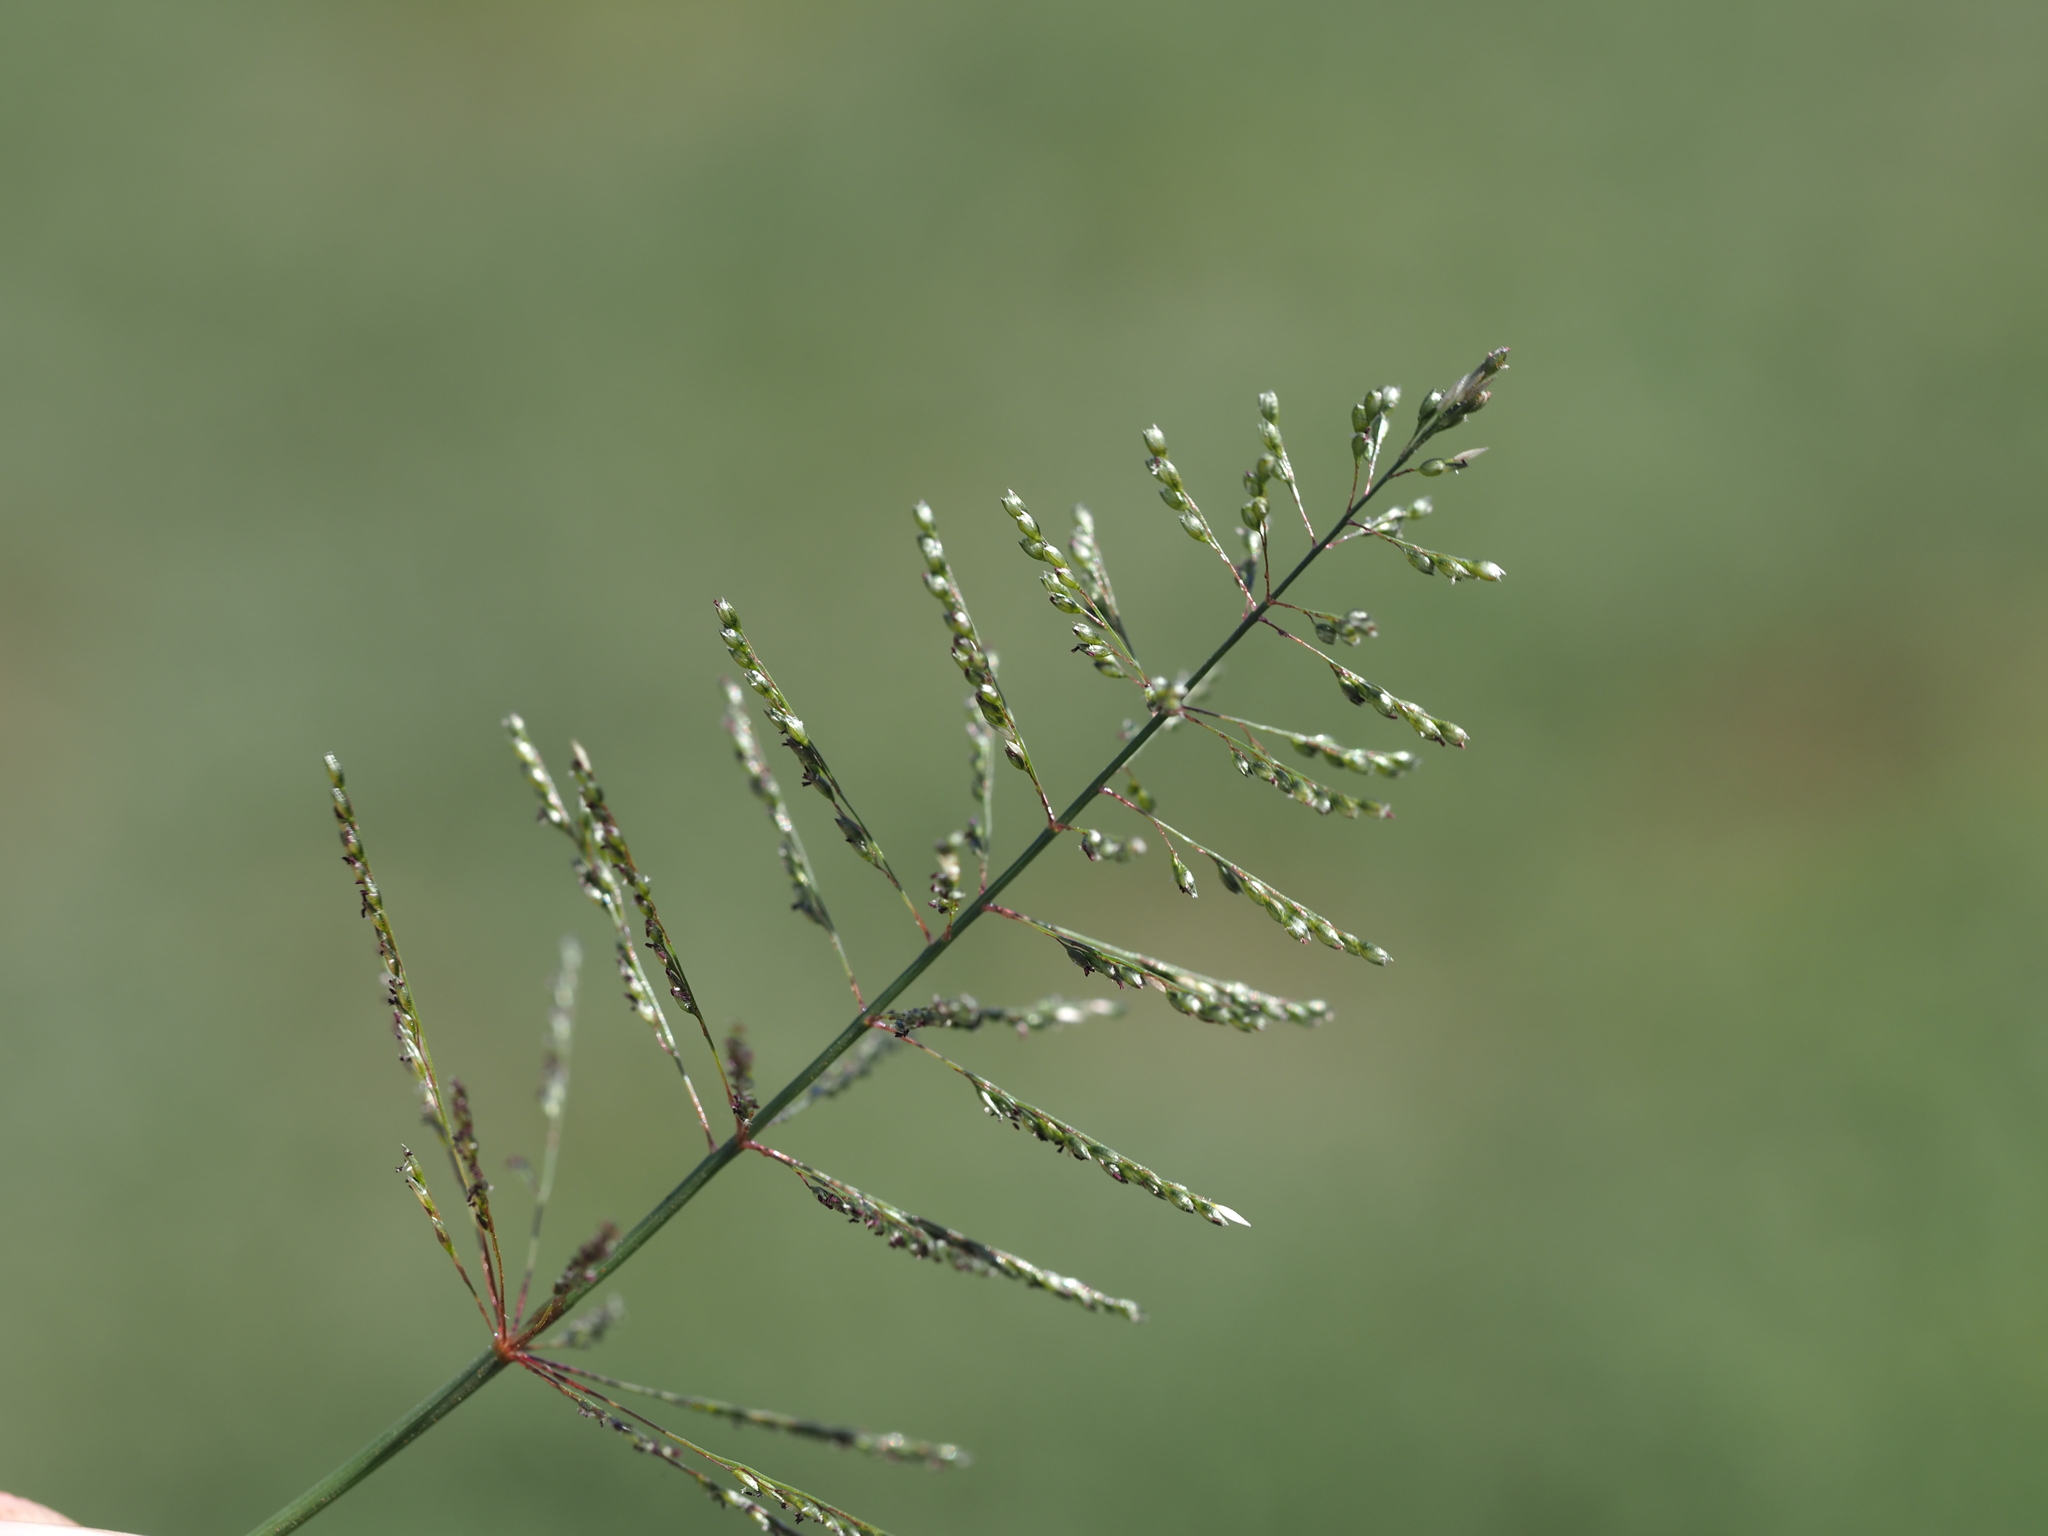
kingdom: Plantae
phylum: Tracheophyta
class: Liliopsida
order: Poales
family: Poaceae
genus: Sporobolus
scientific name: Sporobolus coromandelianus
